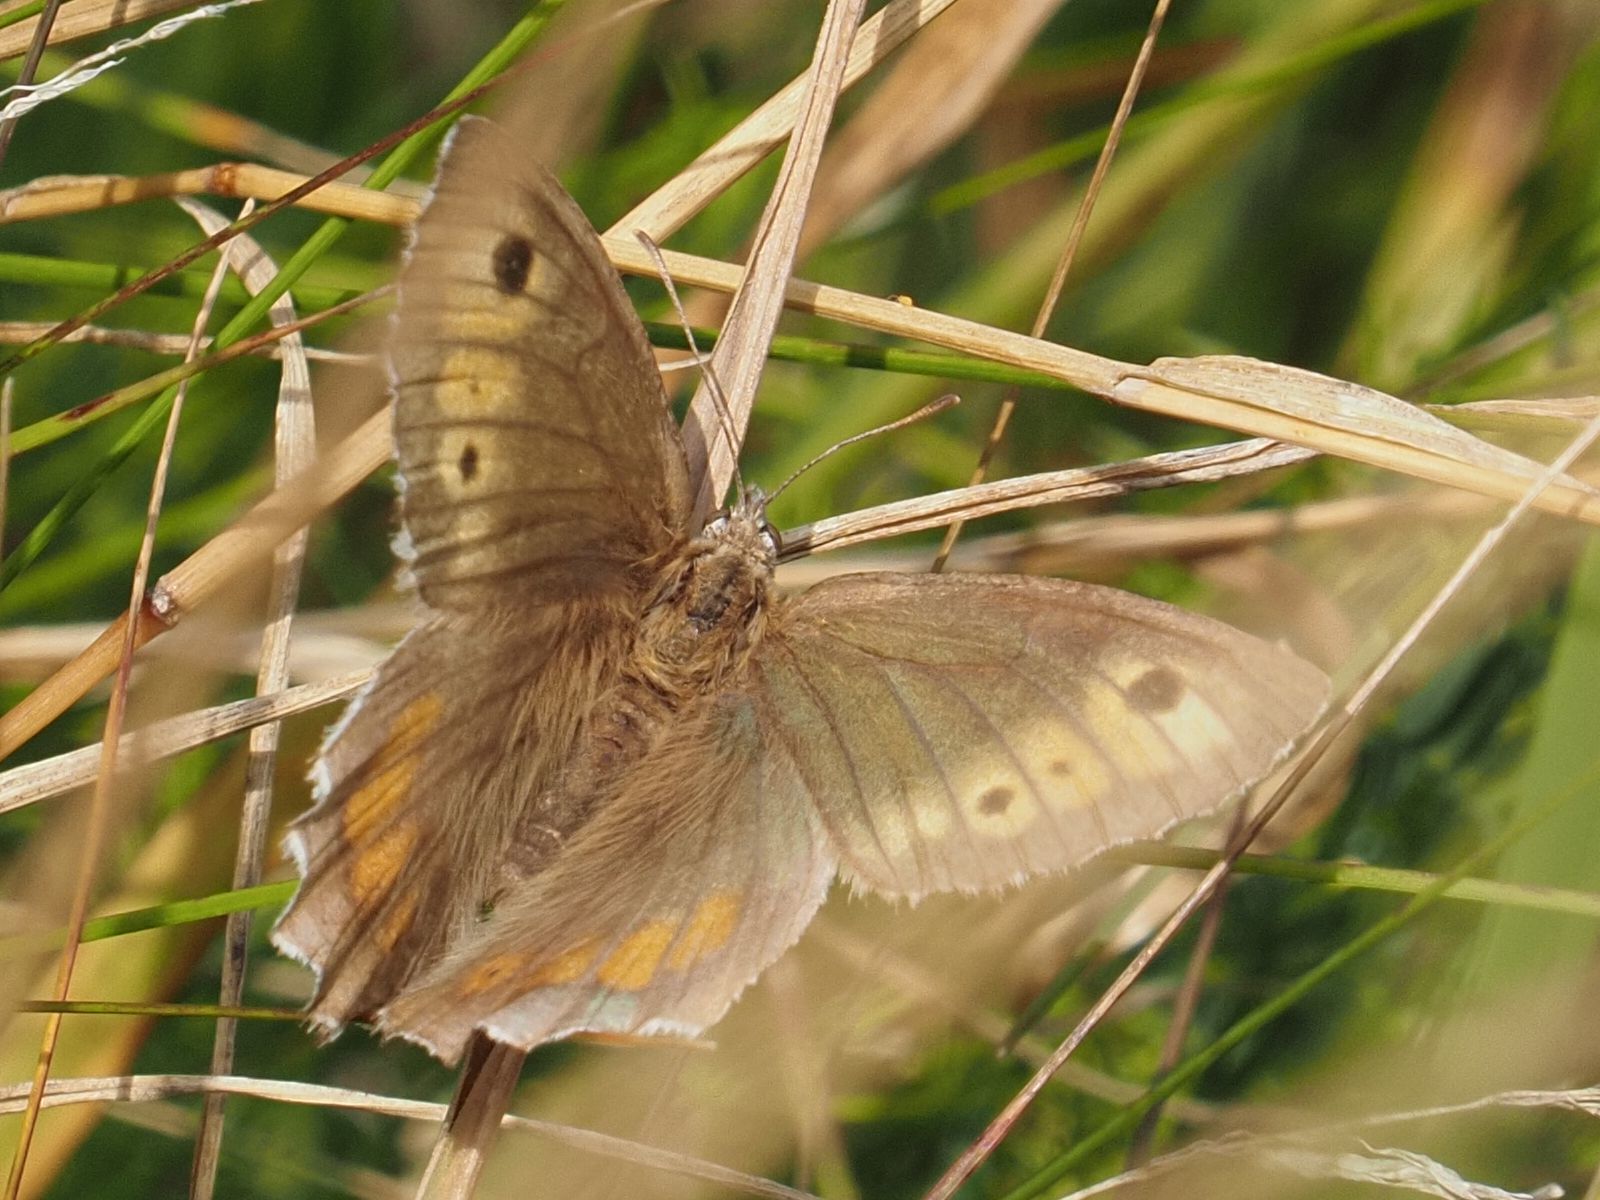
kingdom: Animalia
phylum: Arthropoda
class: Insecta
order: Lepidoptera
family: Nymphalidae
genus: Arethusana
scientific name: Arethusana arethusa
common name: False grayling
